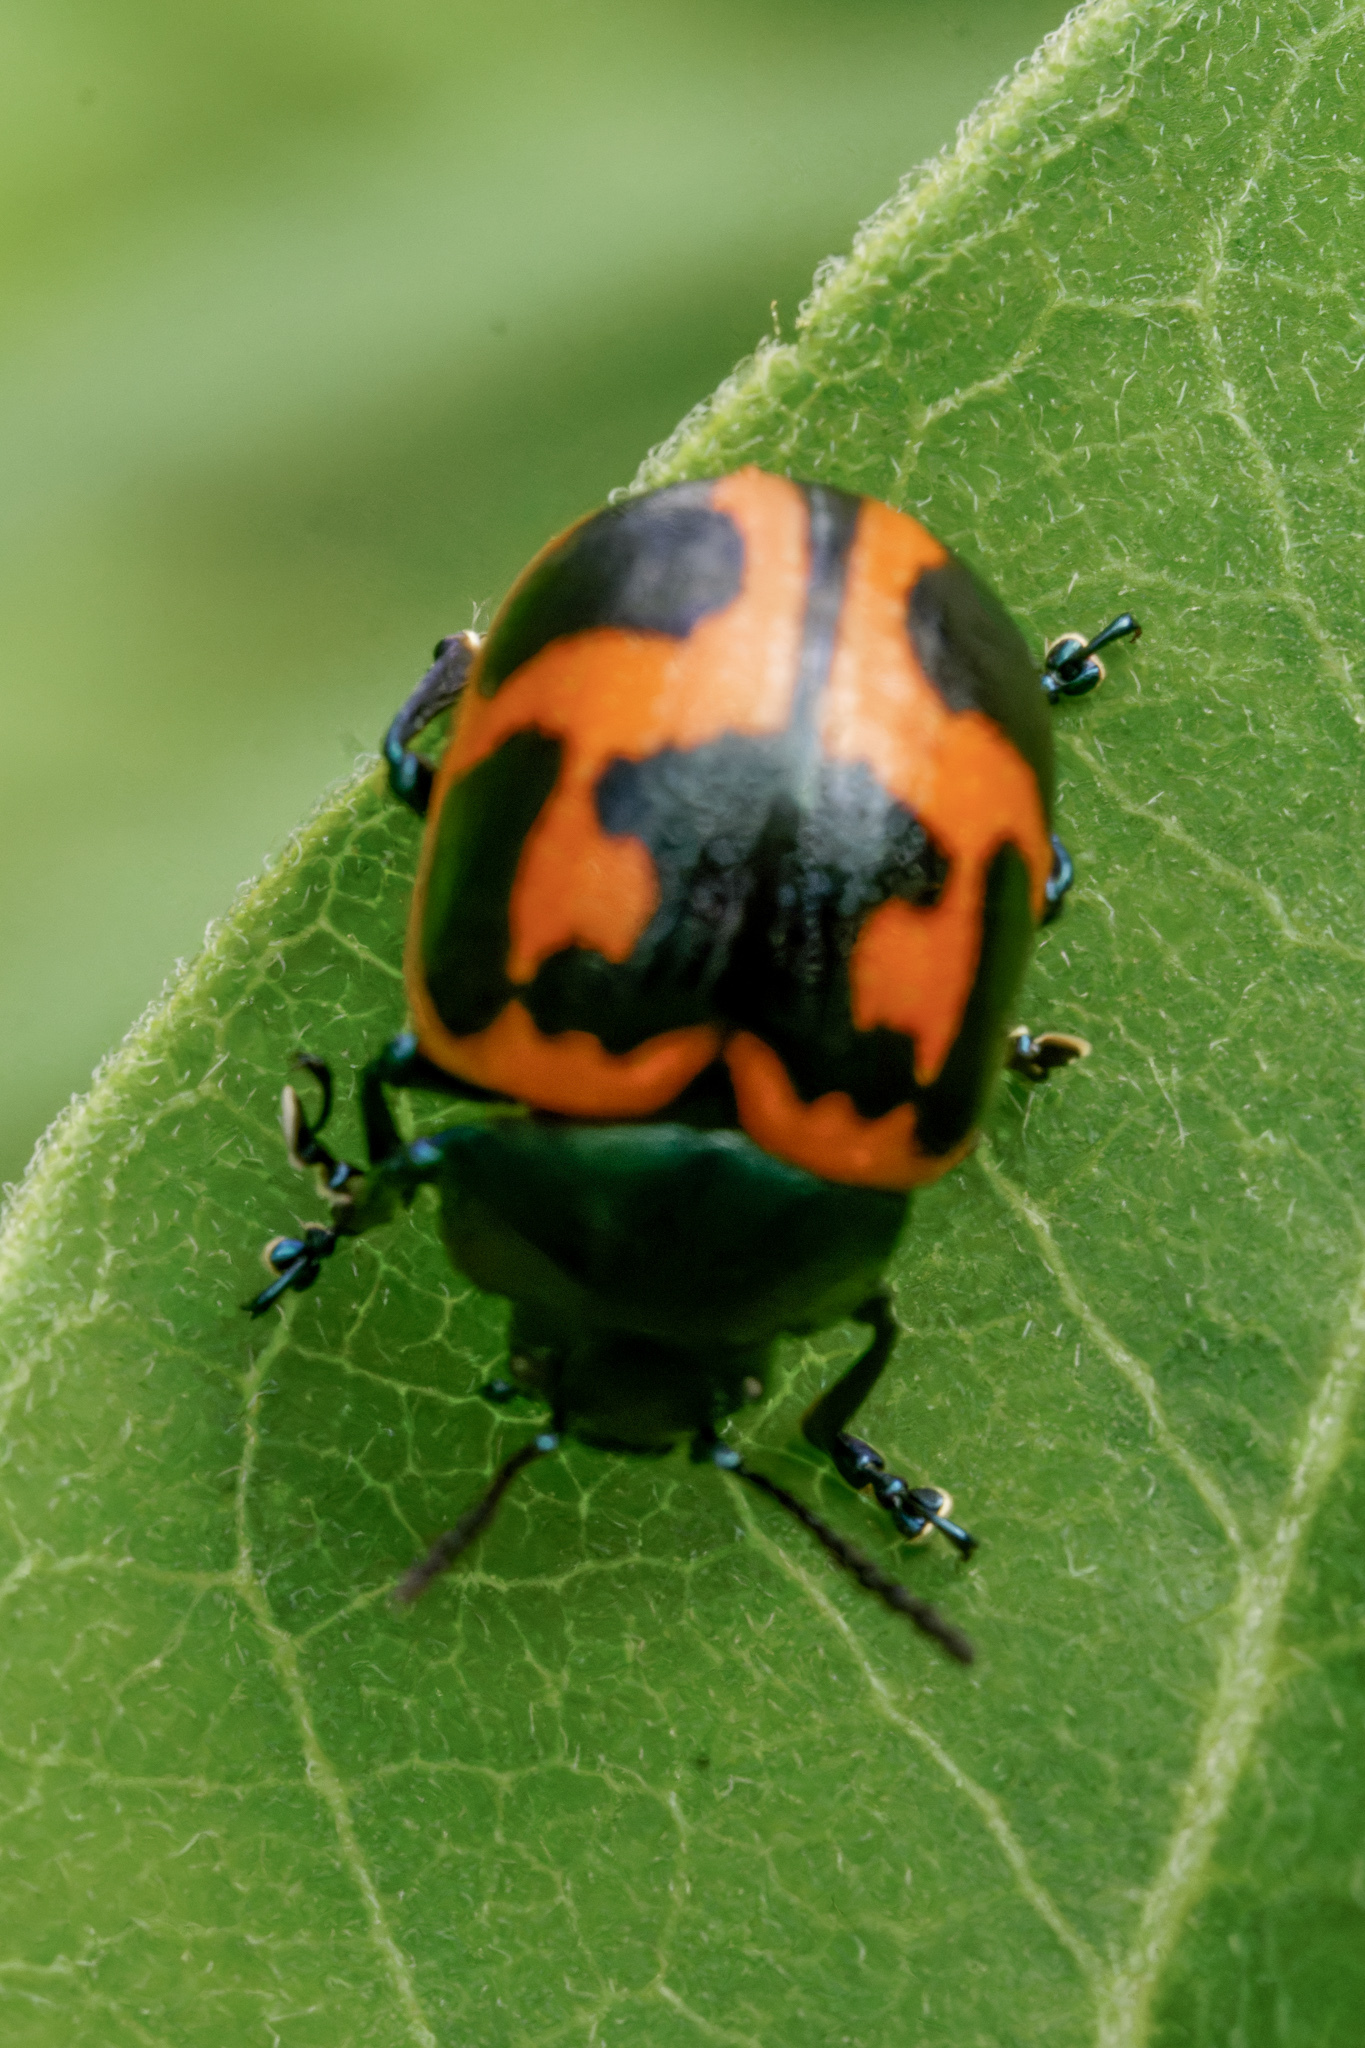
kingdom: Animalia
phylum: Arthropoda
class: Insecta
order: Coleoptera
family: Chrysomelidae
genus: Labidomera
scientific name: Labidomera clivicollis
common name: Swamp milkweed leaf beetle
